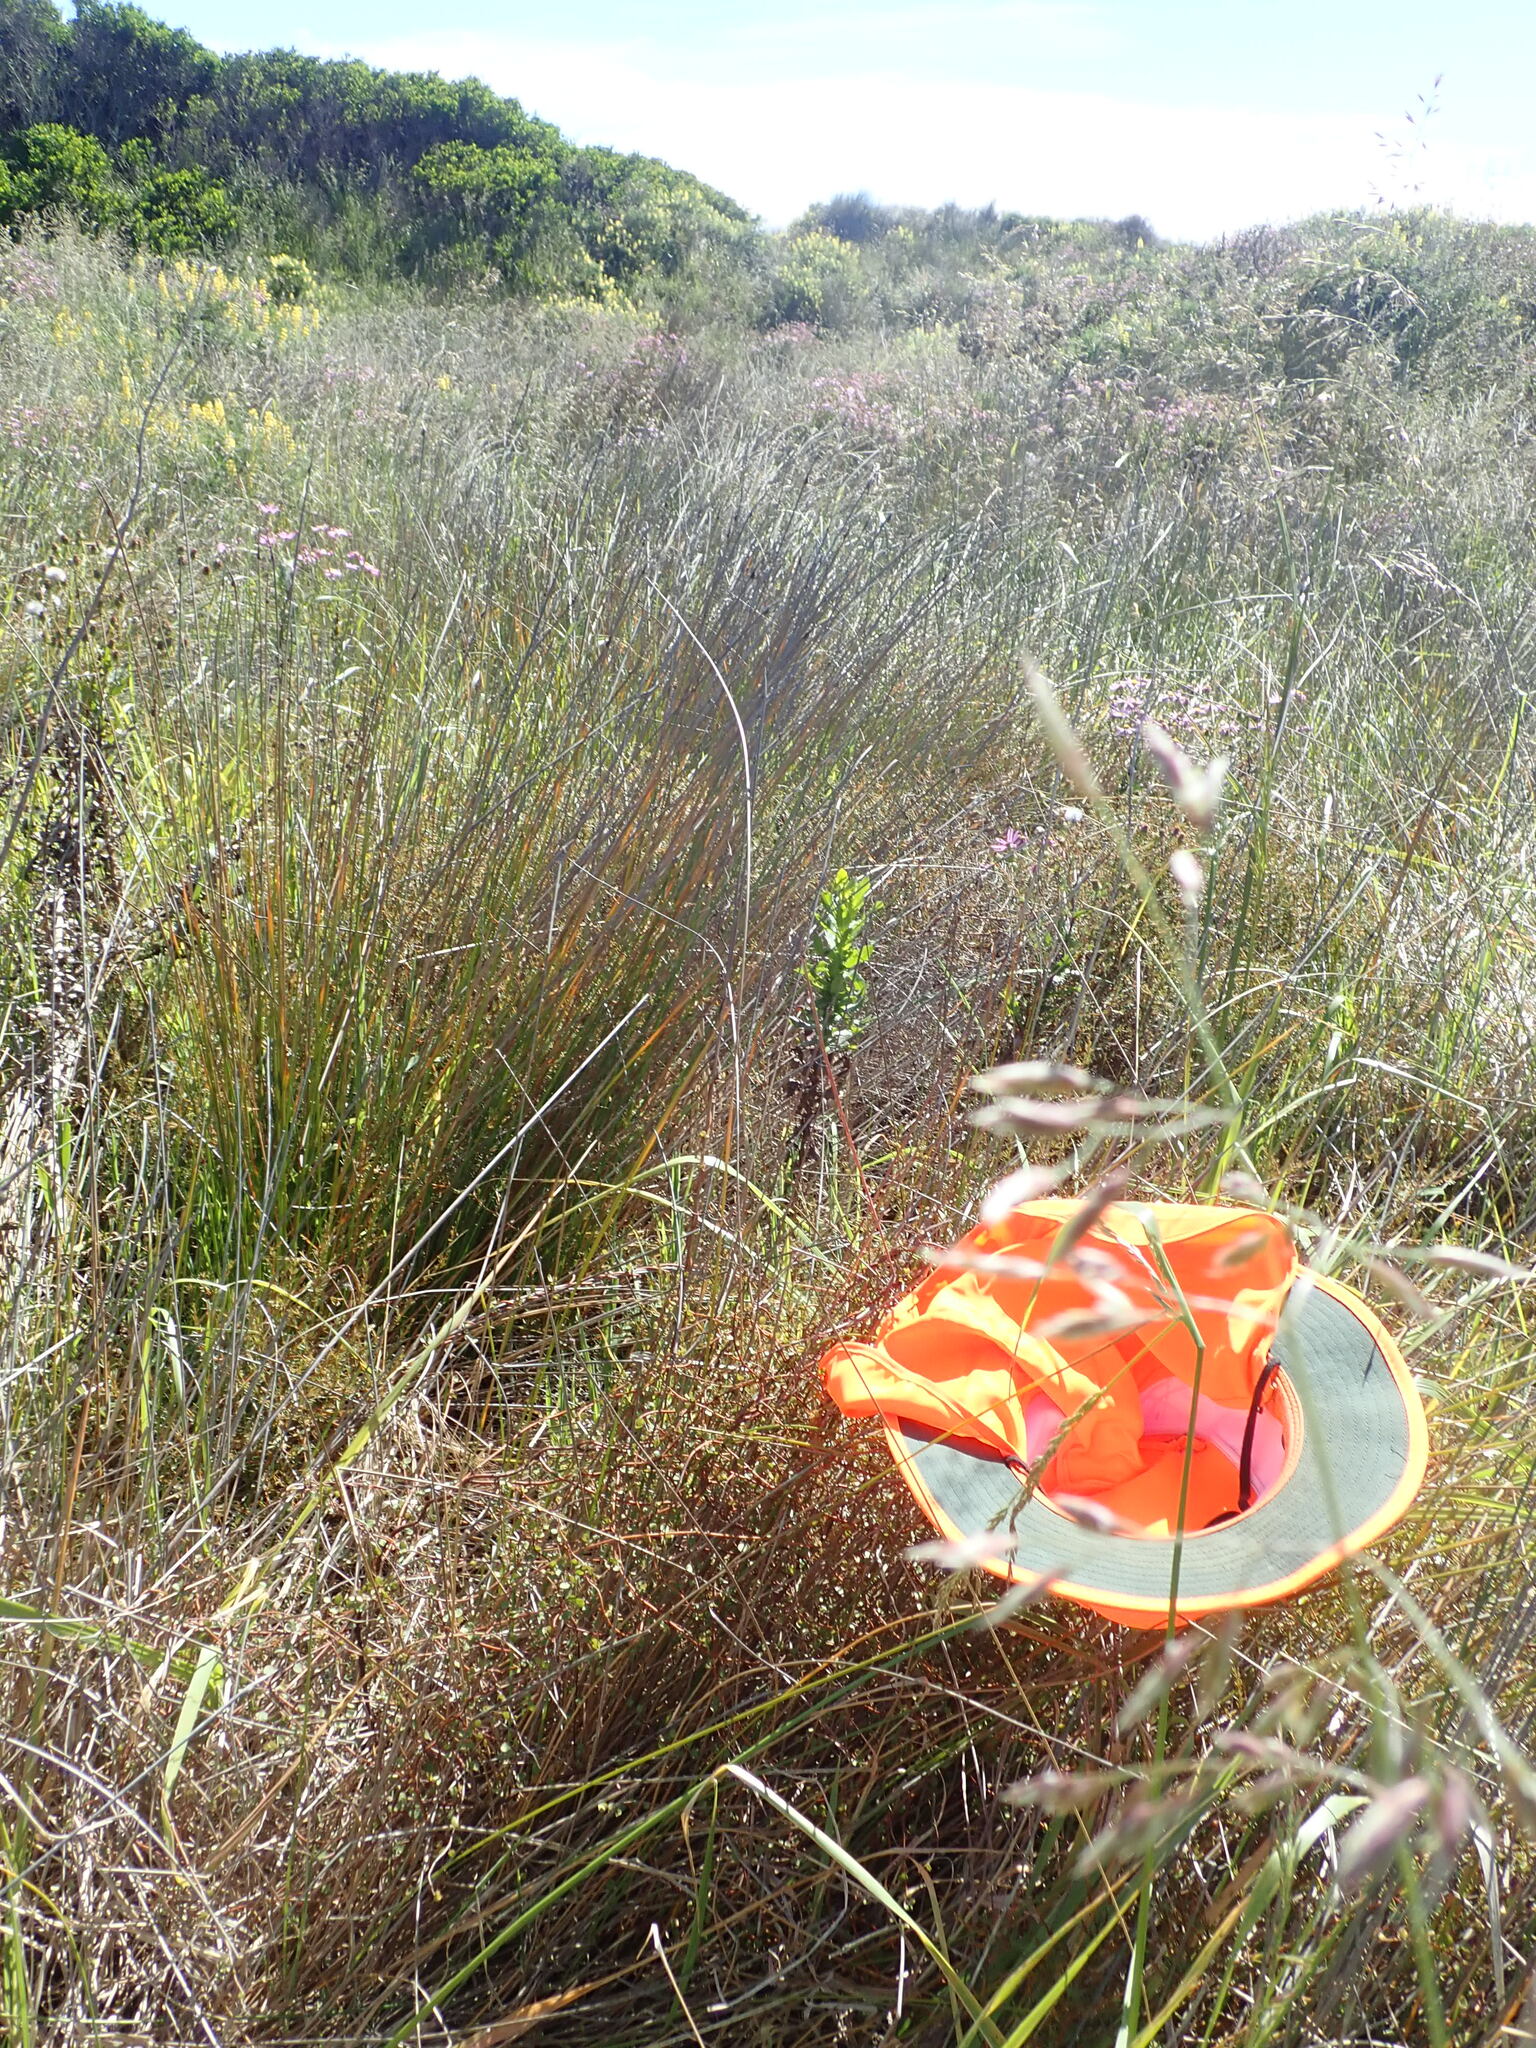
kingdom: Plantae
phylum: Tracheophyta
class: Magnoliopsida
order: Caryophyllales
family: Polygonaceae
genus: Muehlenbeckia
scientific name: Muehlenbeckia complexa
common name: Wireplant
